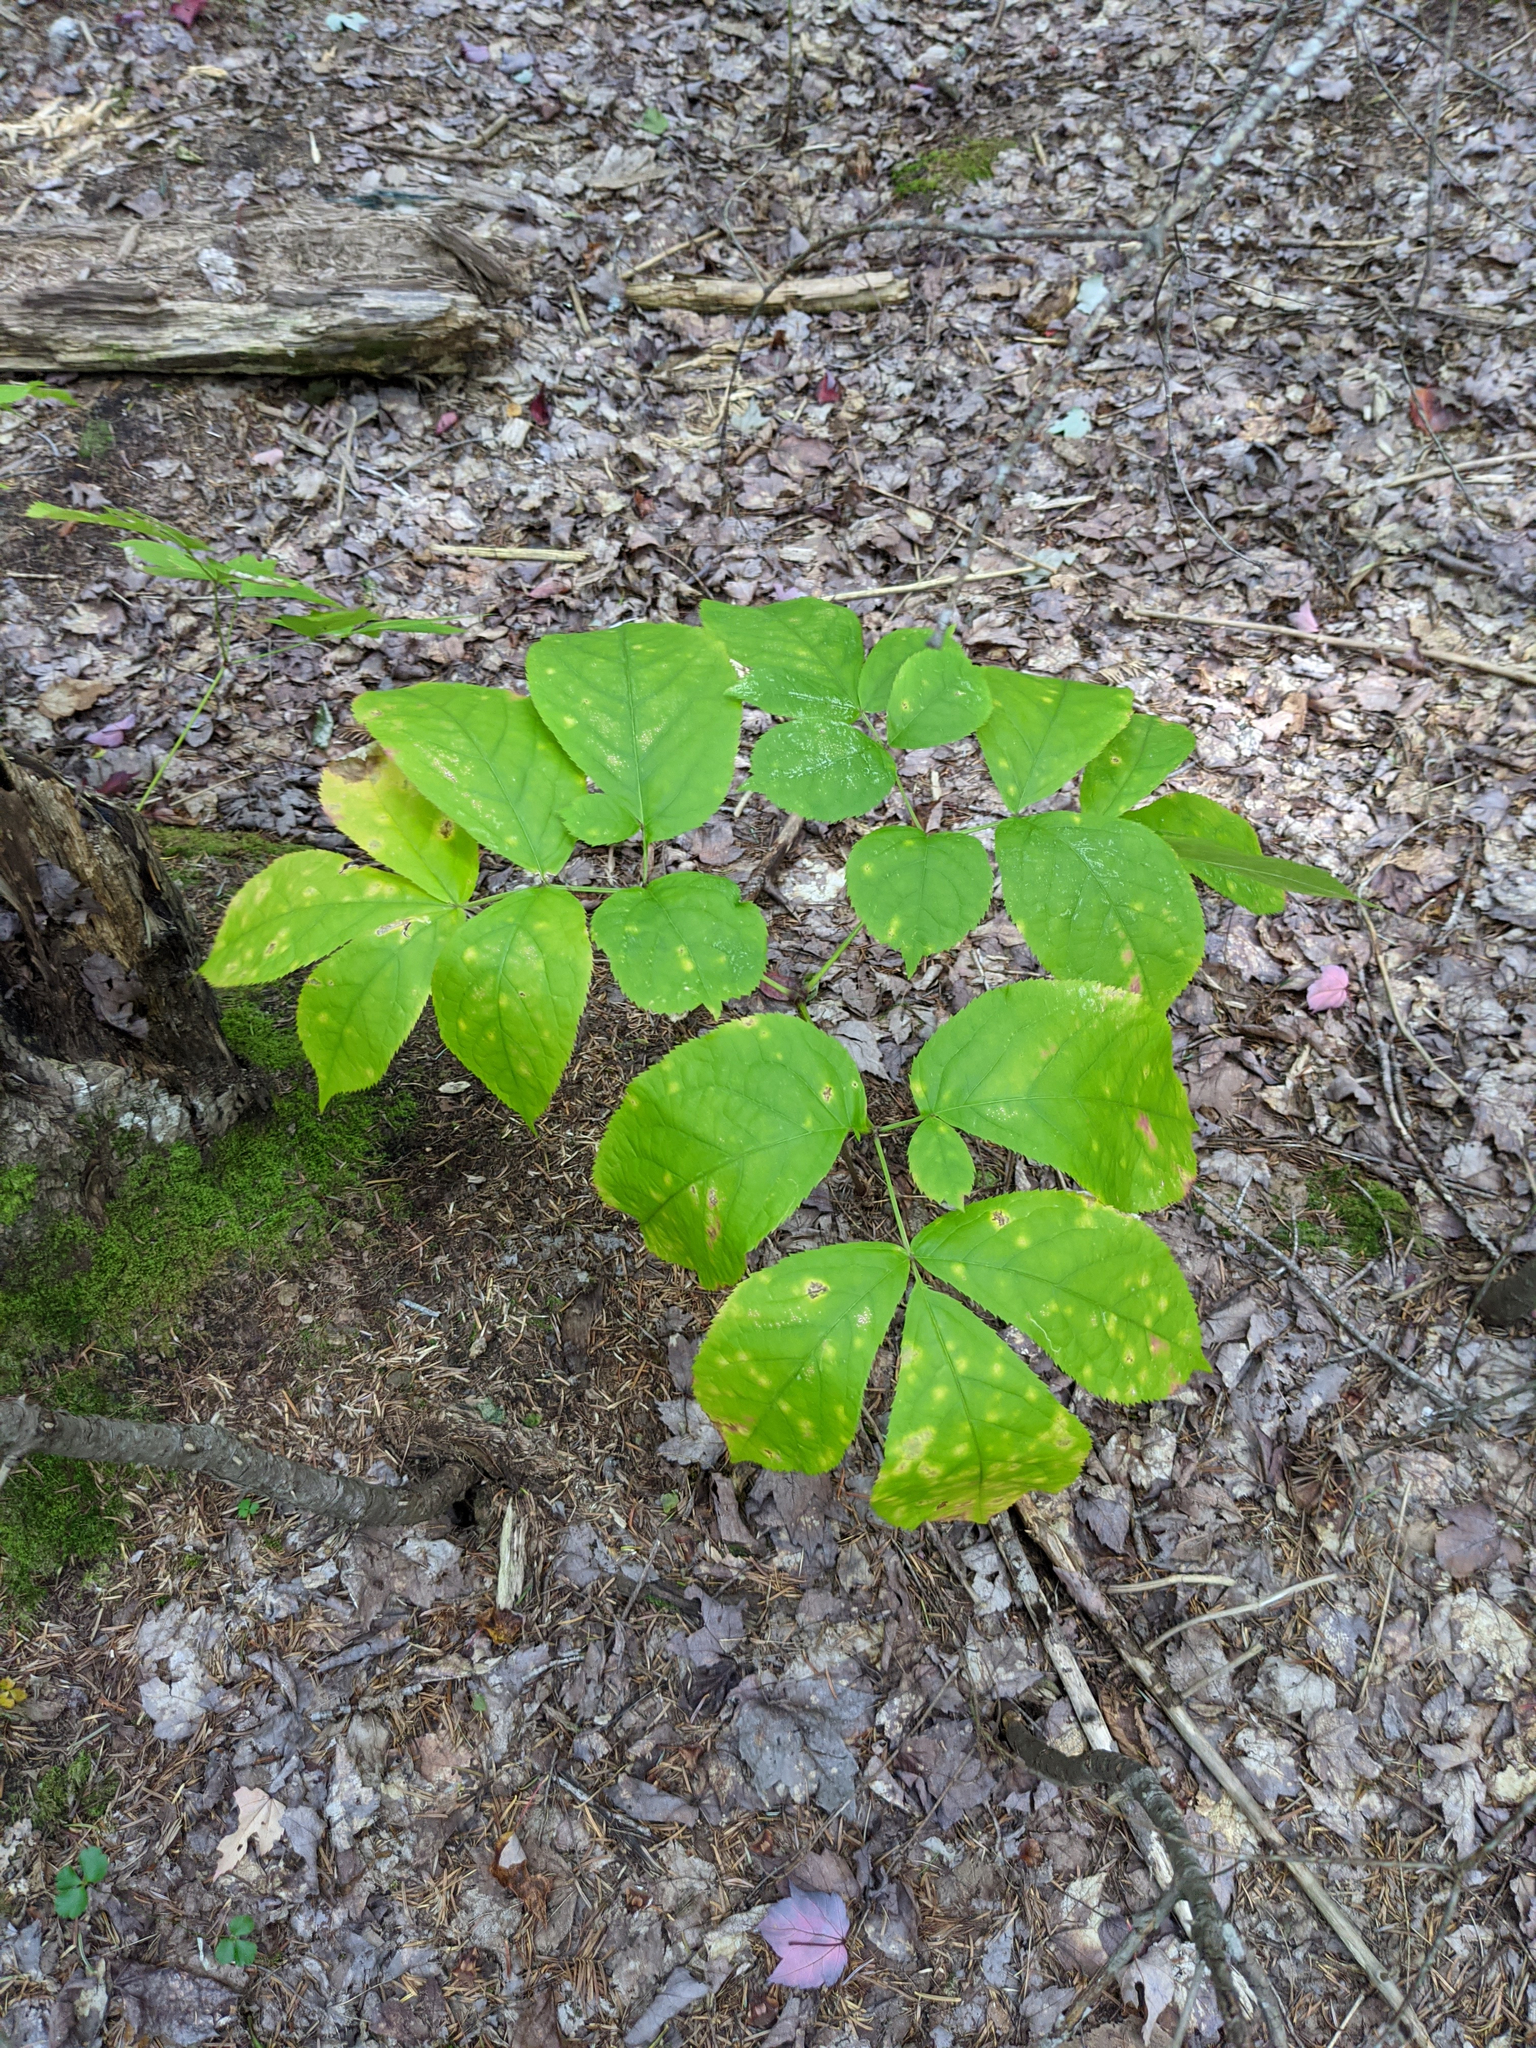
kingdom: Plantae
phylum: Tracheophyta
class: Magnoliopsida
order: Apiales
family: Araliaceae
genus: Aralia
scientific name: Aralia nudicaulis
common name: Wild sarsaparilla
